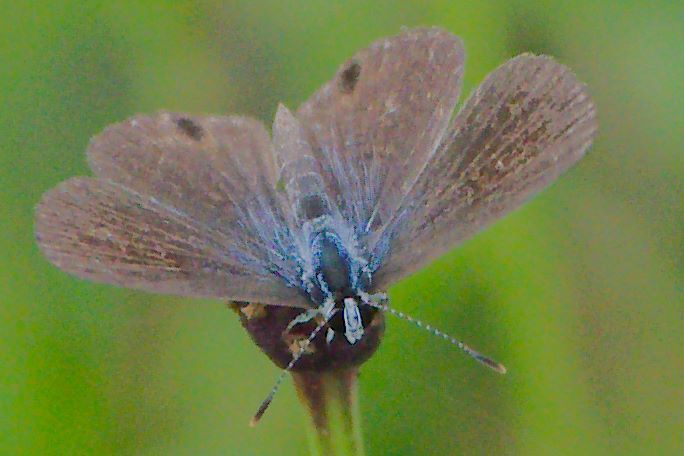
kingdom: Animalia
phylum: Arthropoda
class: Insecta
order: Lepidoptera
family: Lycaenidae
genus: Hemiargus
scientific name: Hemiargus ceraunus
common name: Ceraunus blue
